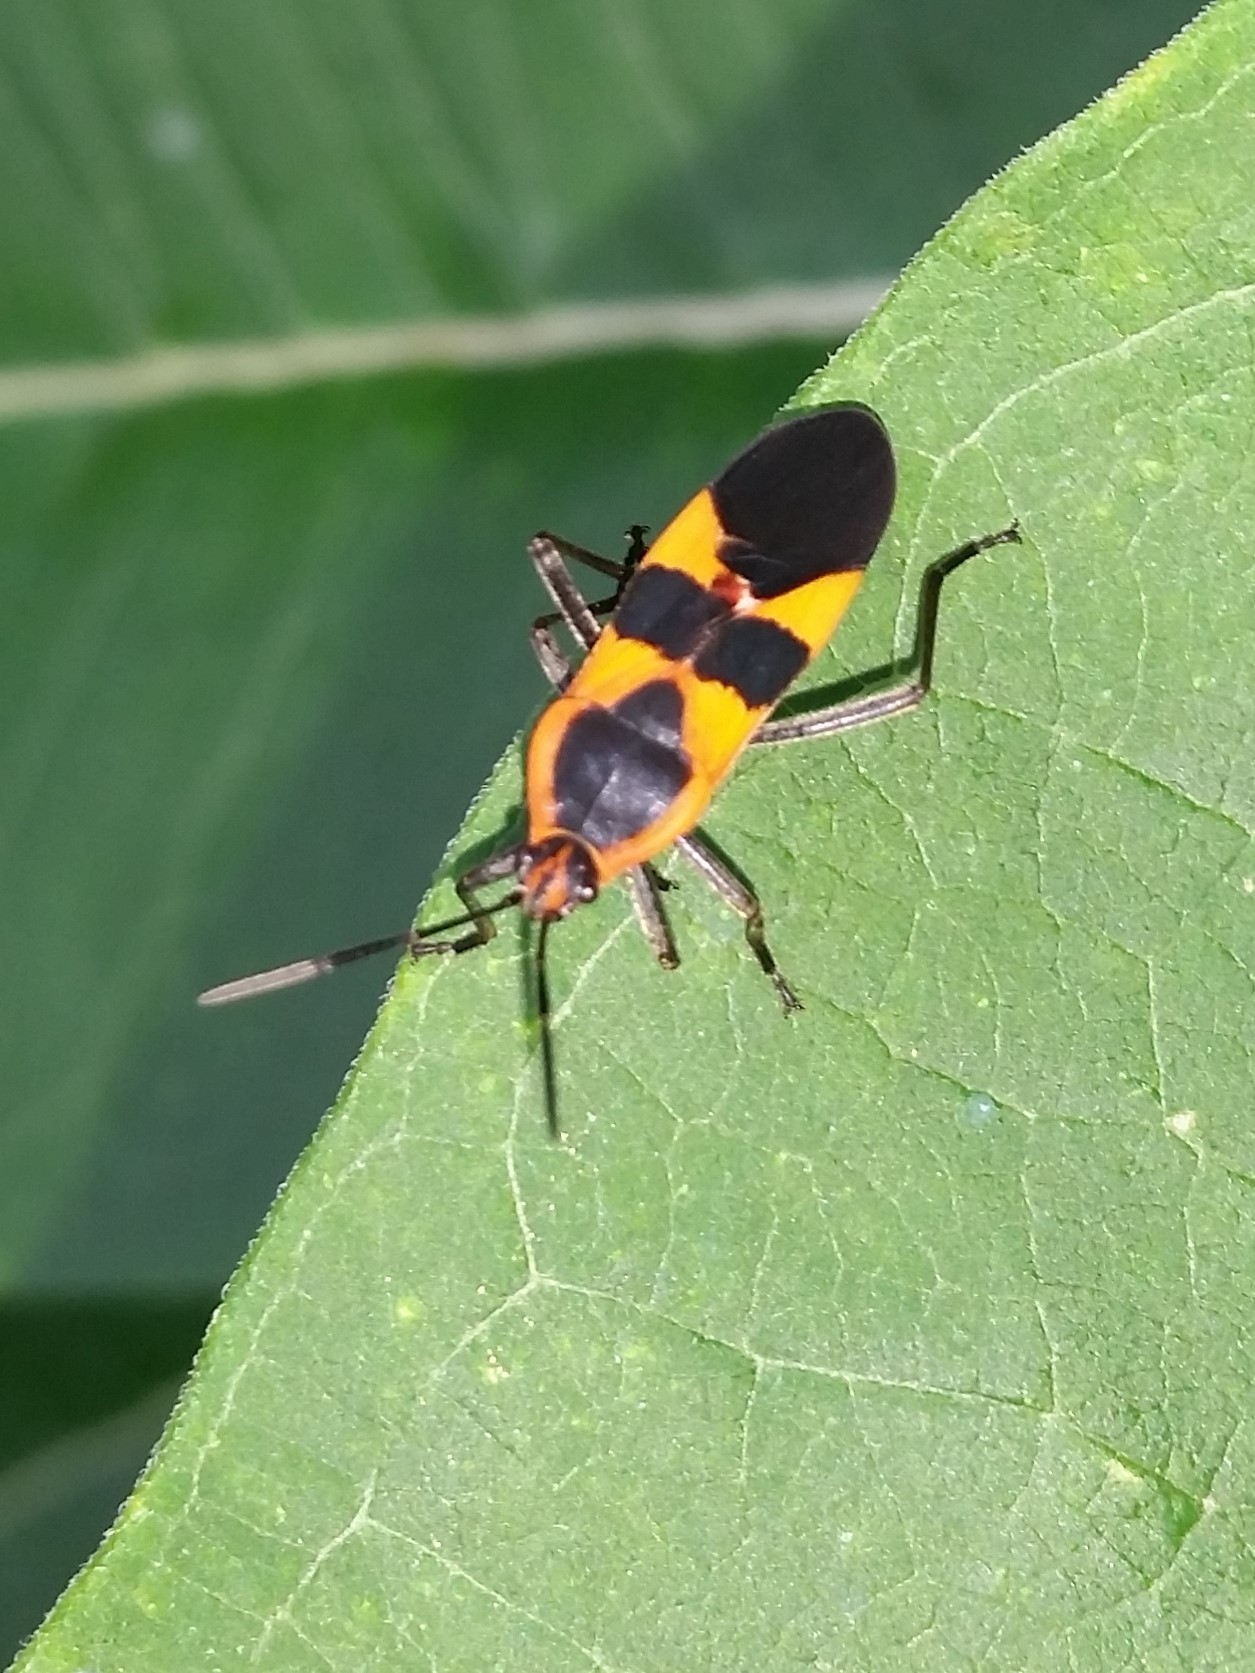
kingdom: Animalia
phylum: Arthropoda
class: Insecta
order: Hemiptera
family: Lygaeidae
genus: Oncopeltus
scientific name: Oncopeltus fasciatus
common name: Large milkweed bug
